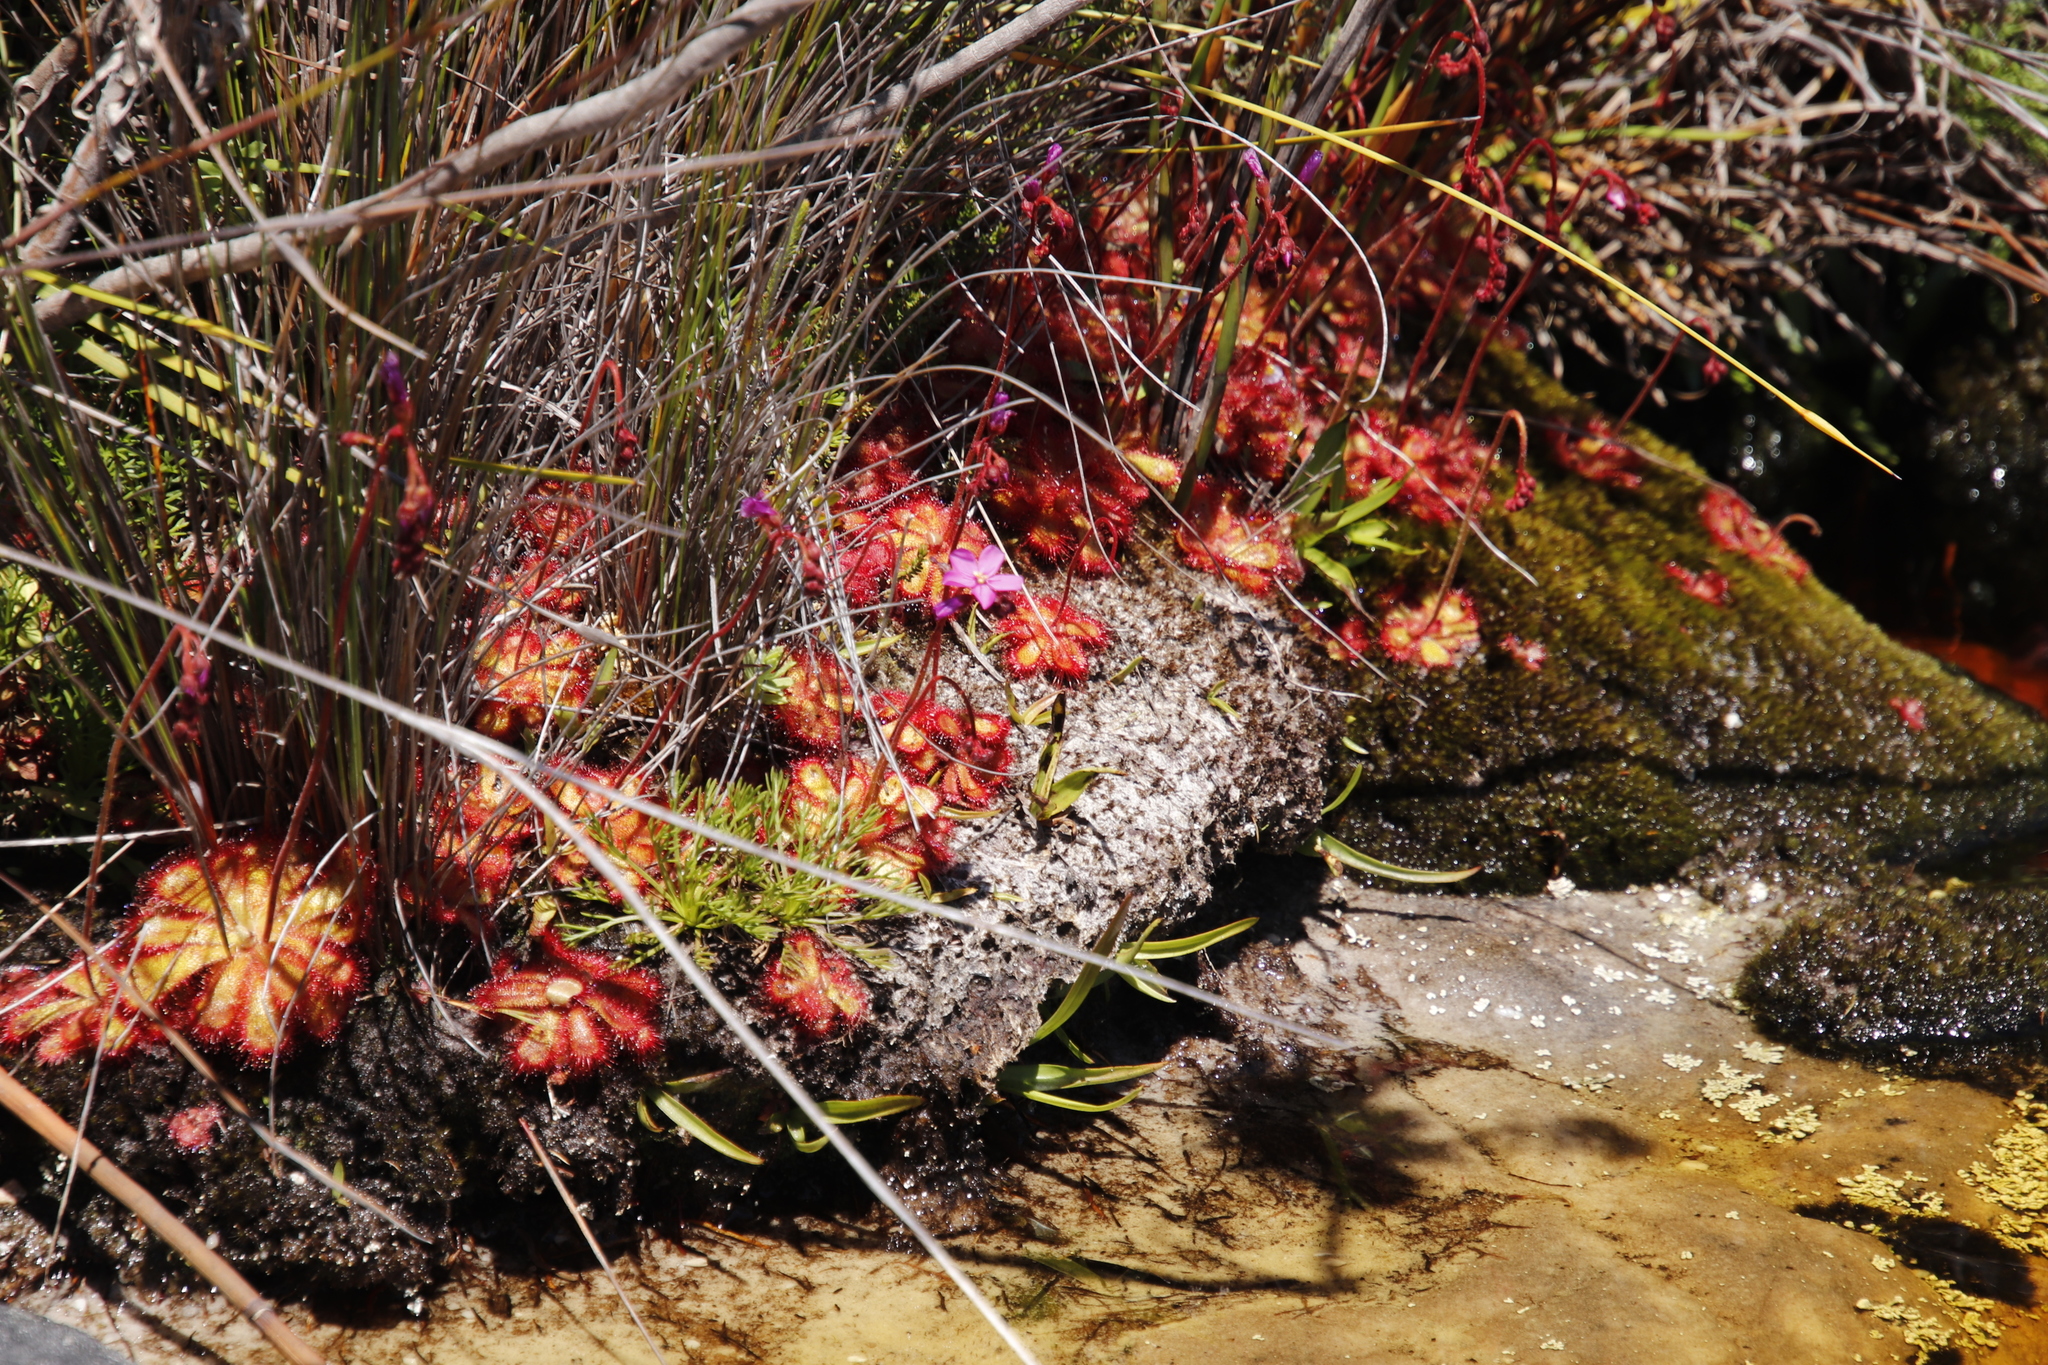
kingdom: Plantae
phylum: Tracheophyta
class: Magnoliopsida
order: Caryophyllales
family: Droseraceae
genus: Drosera
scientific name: Drosera cuneifolia
